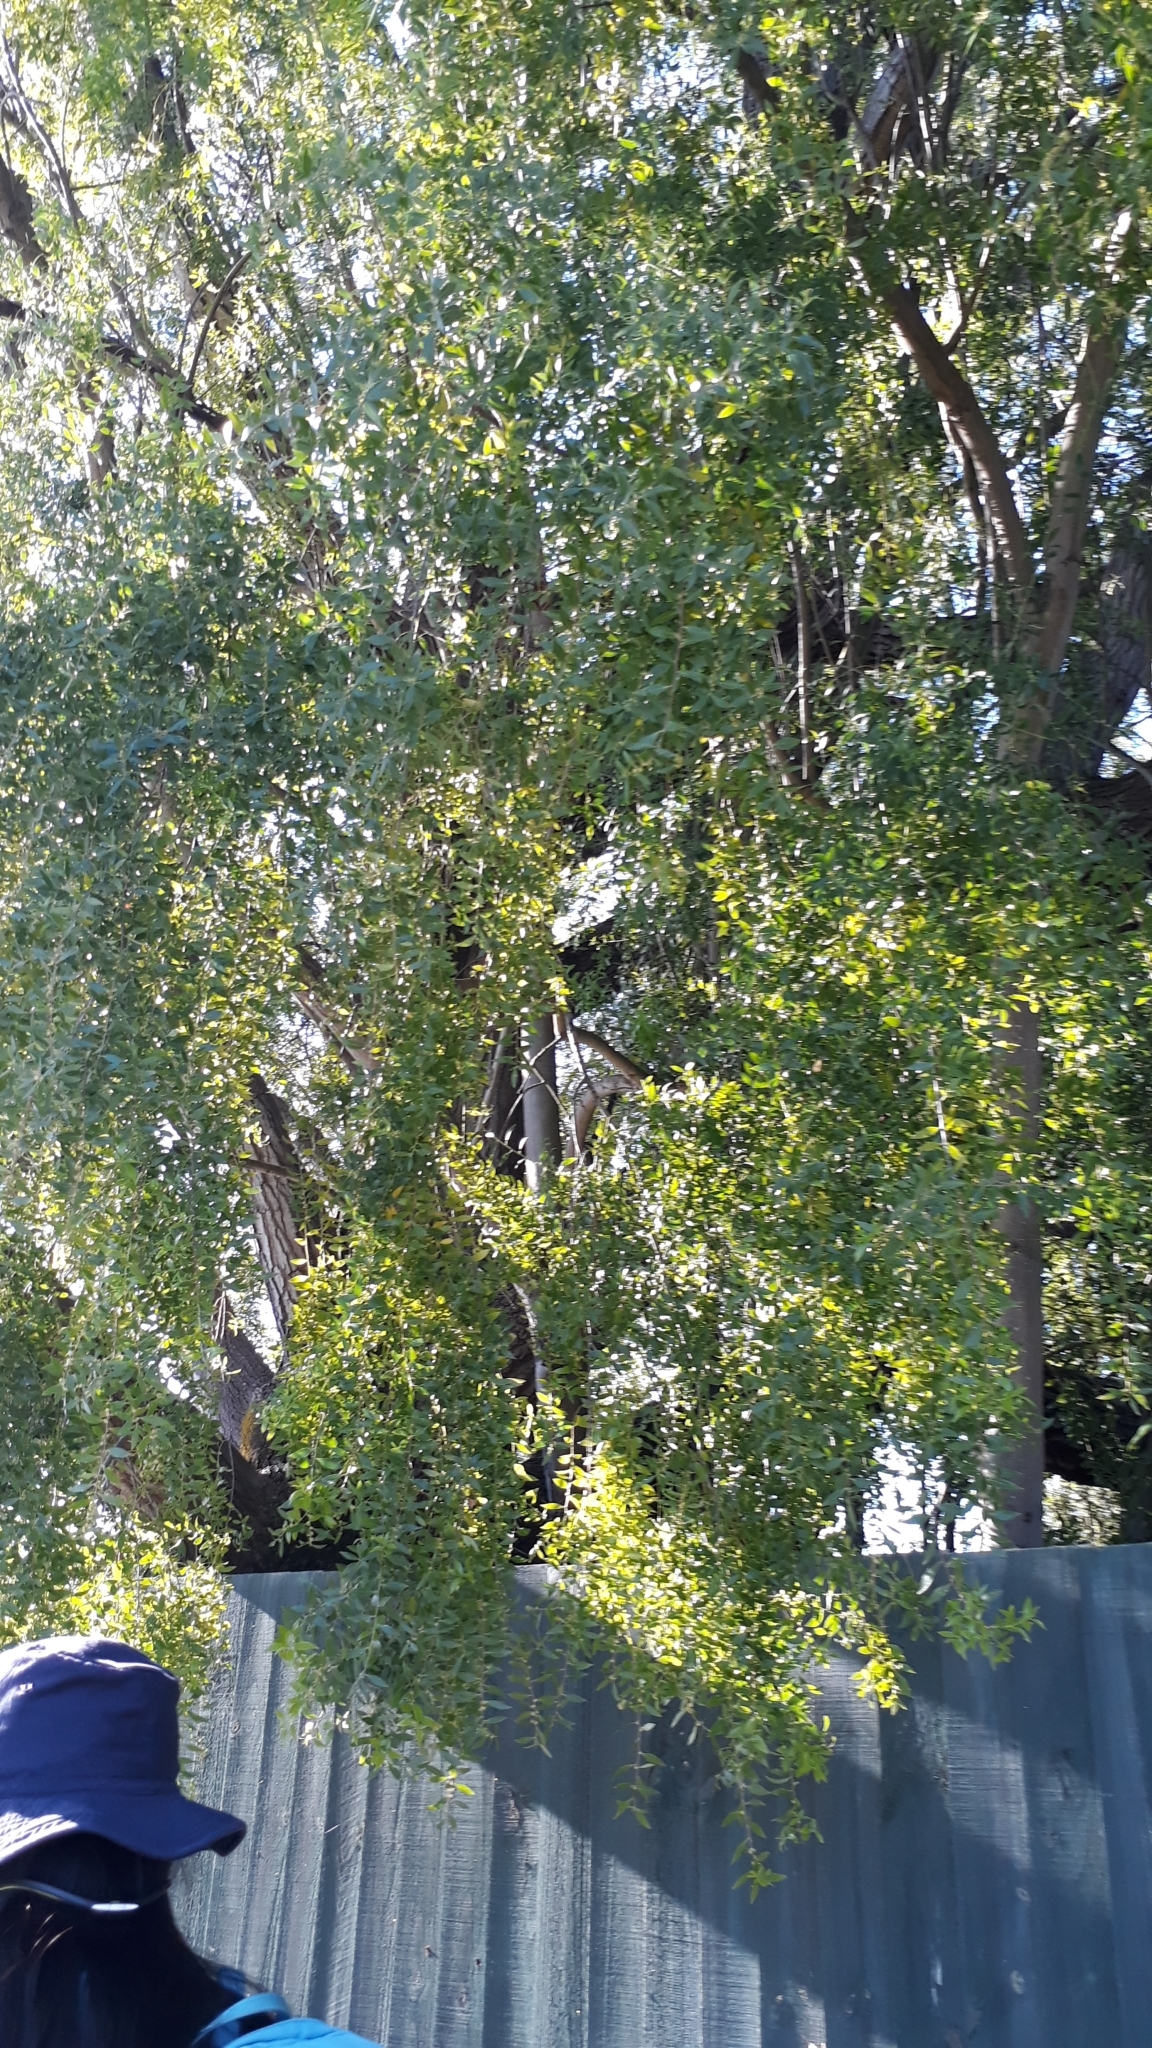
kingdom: Plantae
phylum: Tracheophyta
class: Magnoliopsida
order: Celastrales
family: Celastraceae
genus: Maytenus
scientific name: Maytenus boaria
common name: Mayten
